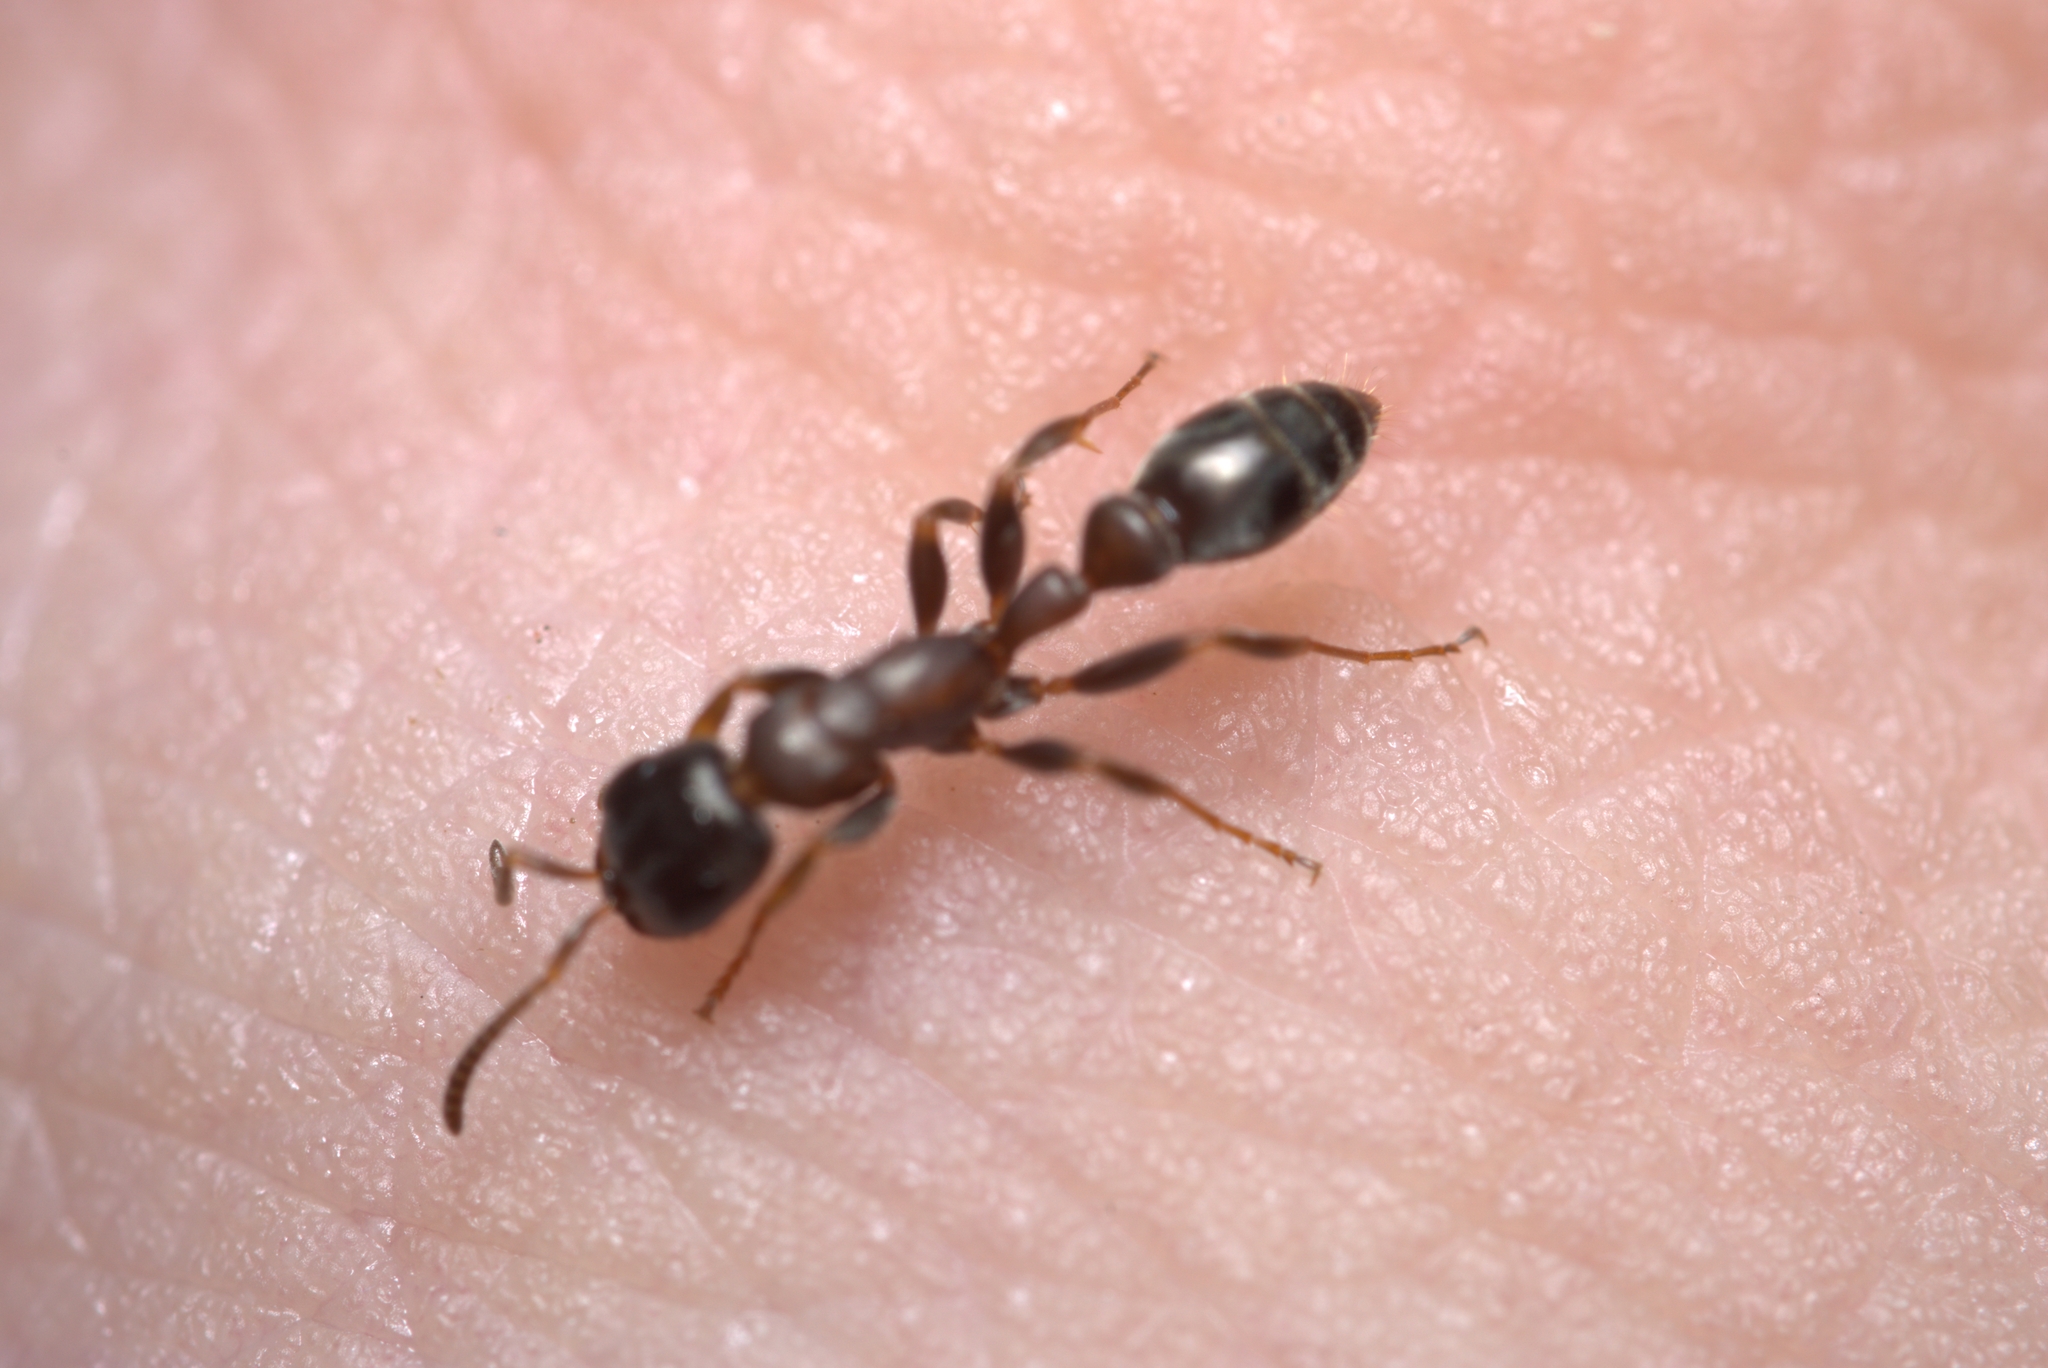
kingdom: Animalia
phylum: Arthropoda
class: Insecta
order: Hymenoptera
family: Formicidae
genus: Pseudomyrmex
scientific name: Pseudomyrmex termitarius
